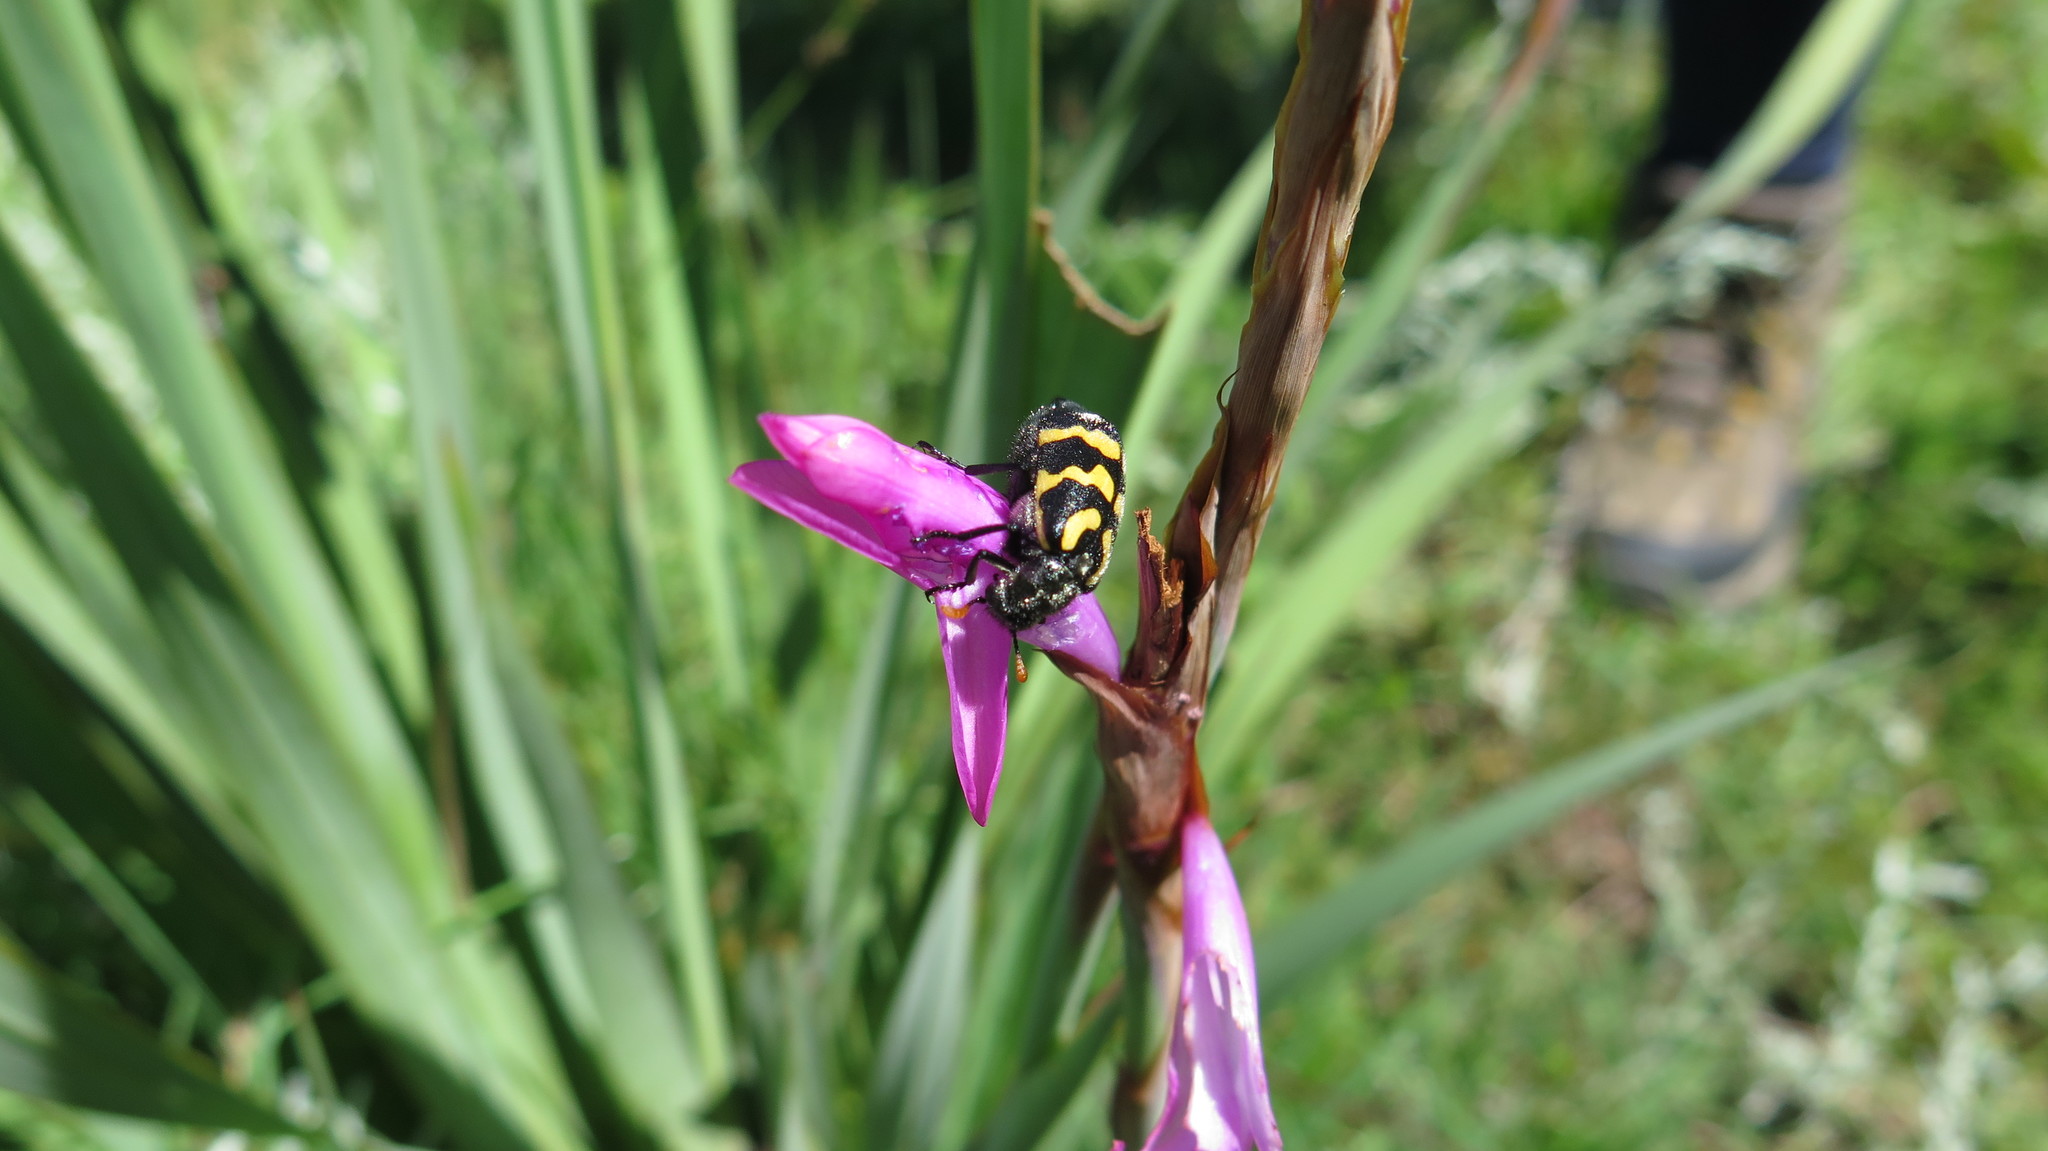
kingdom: Animalia
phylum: Arthropoda
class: Insecta
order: Coleoptera
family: Meloidae
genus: Meloe
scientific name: Meloe lunata
